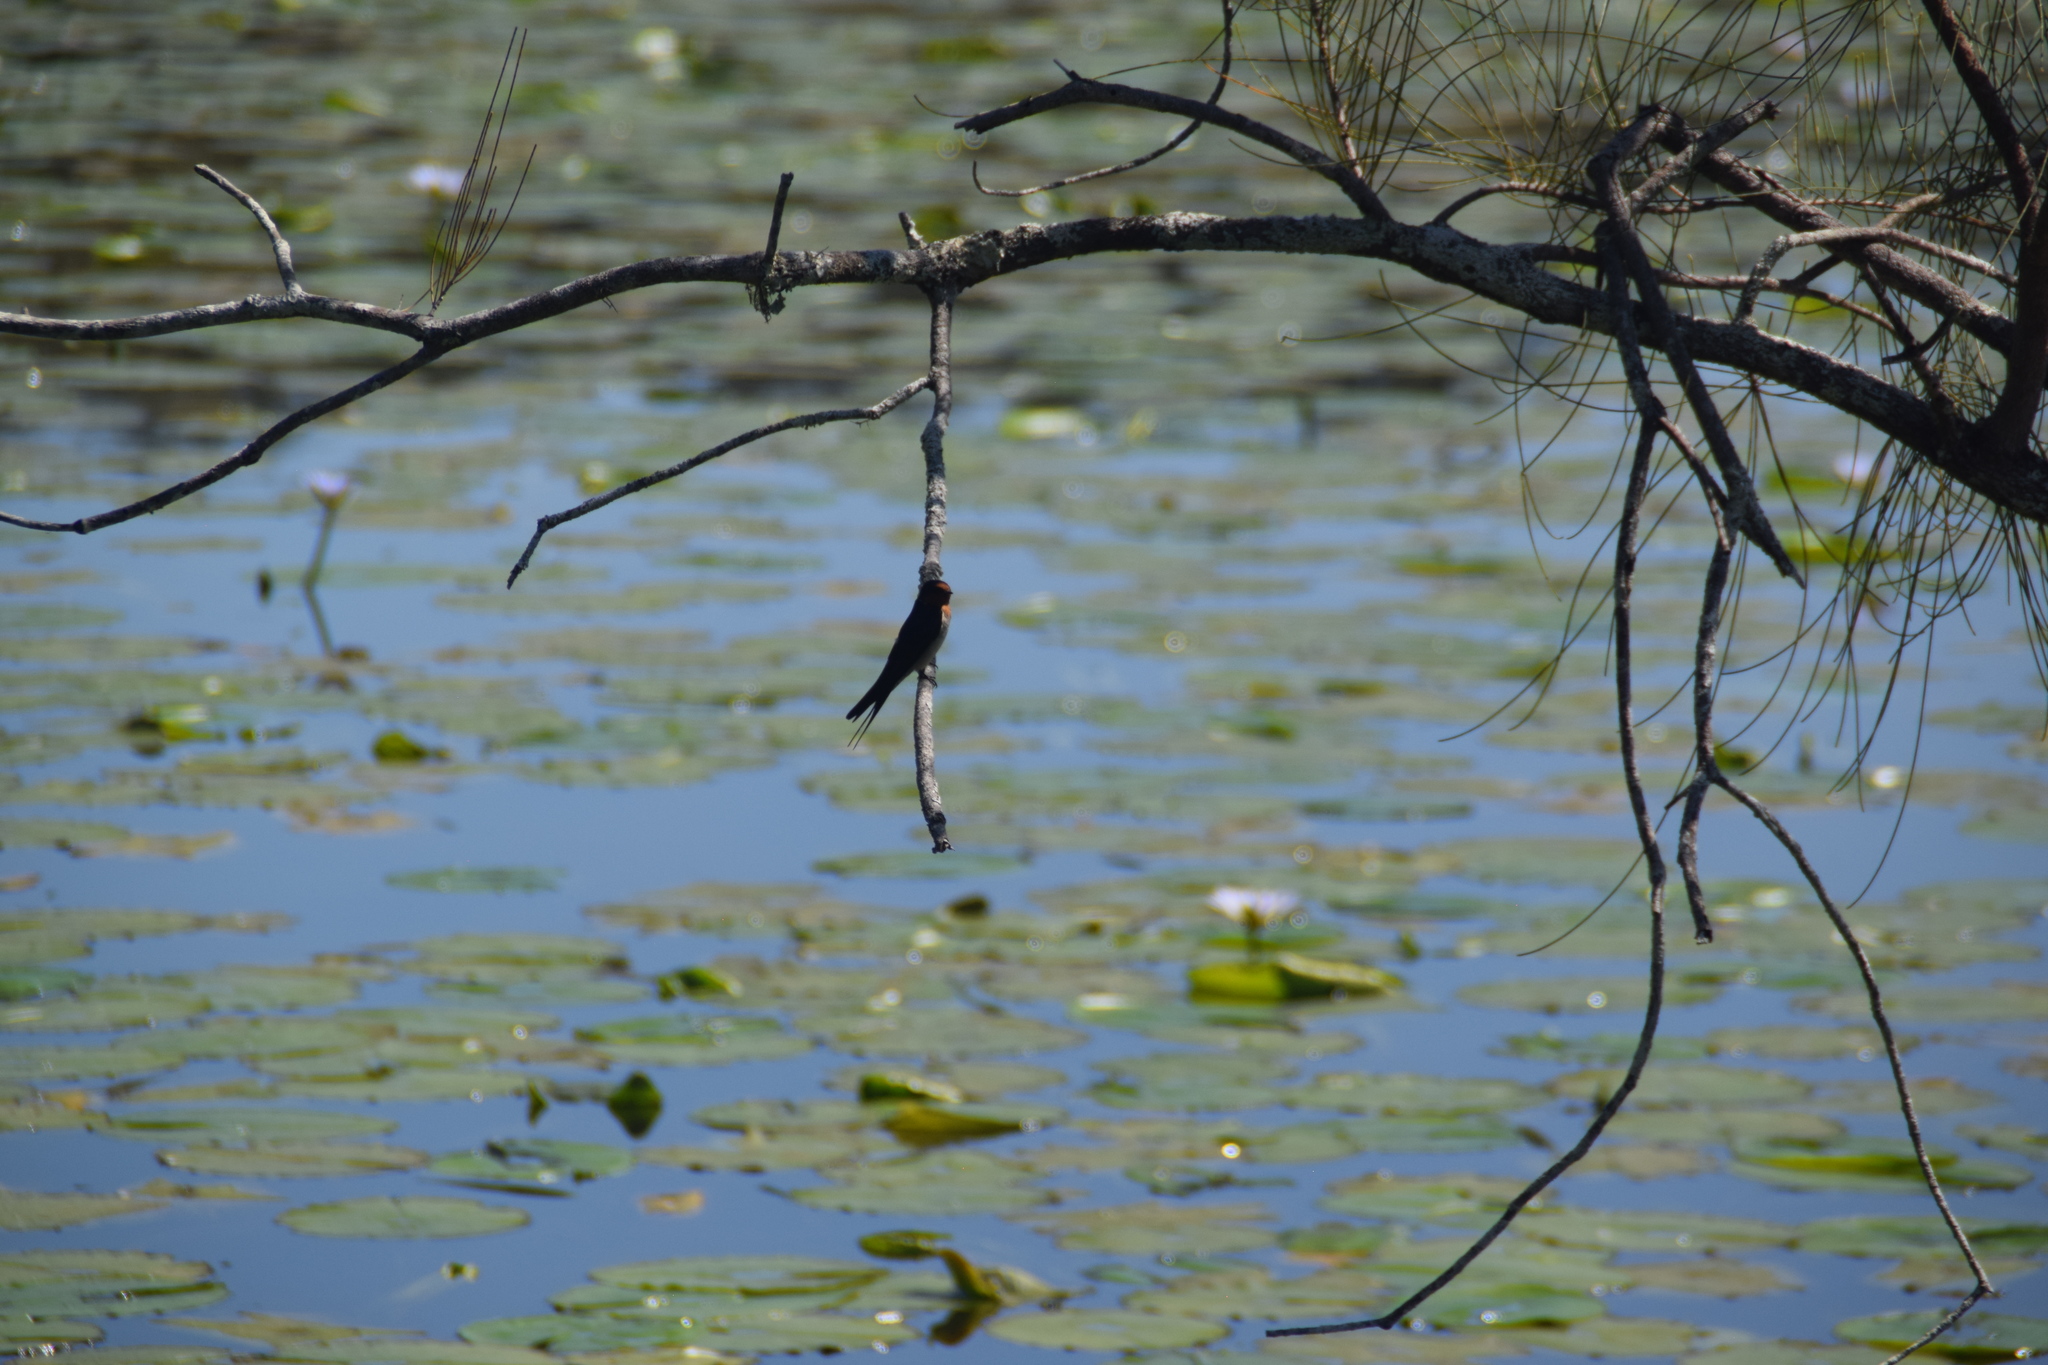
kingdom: Animalia
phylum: Chordata
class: Aves
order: Passeriformes
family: Hirundinidae
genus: Hirundo
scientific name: Hirundo neoxena
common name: Welcome swallow
